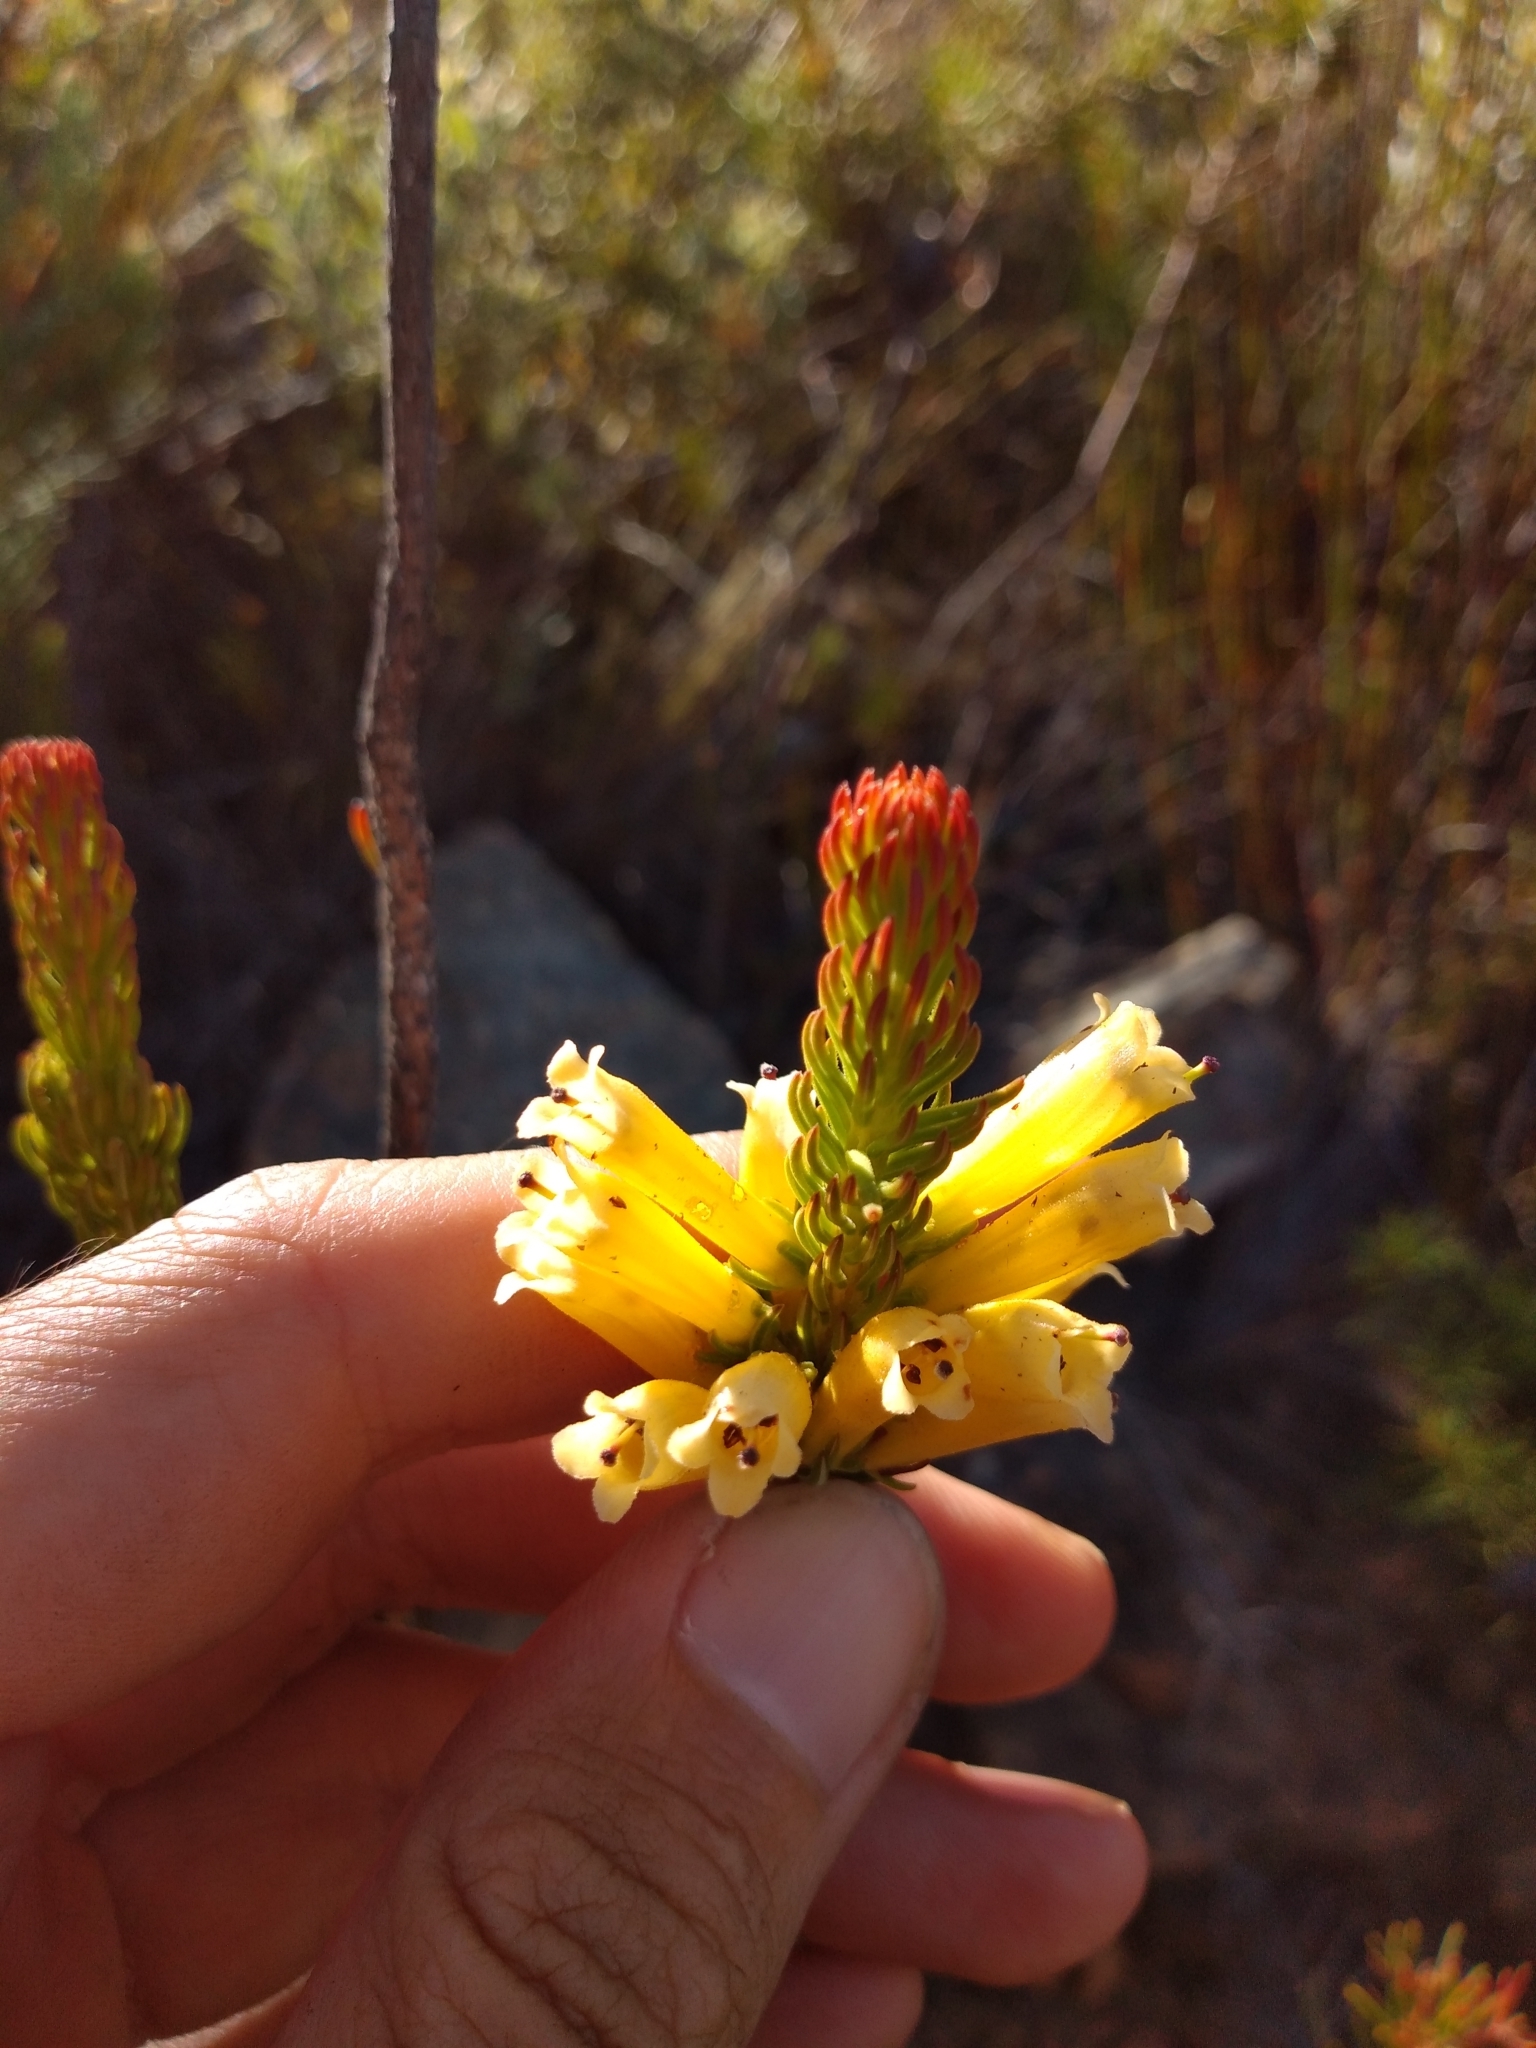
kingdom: Plantae
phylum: Tracheophyta
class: Magnoliopsida
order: Ericales
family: Ericaceae
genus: Erica
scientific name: Erica viscaria
